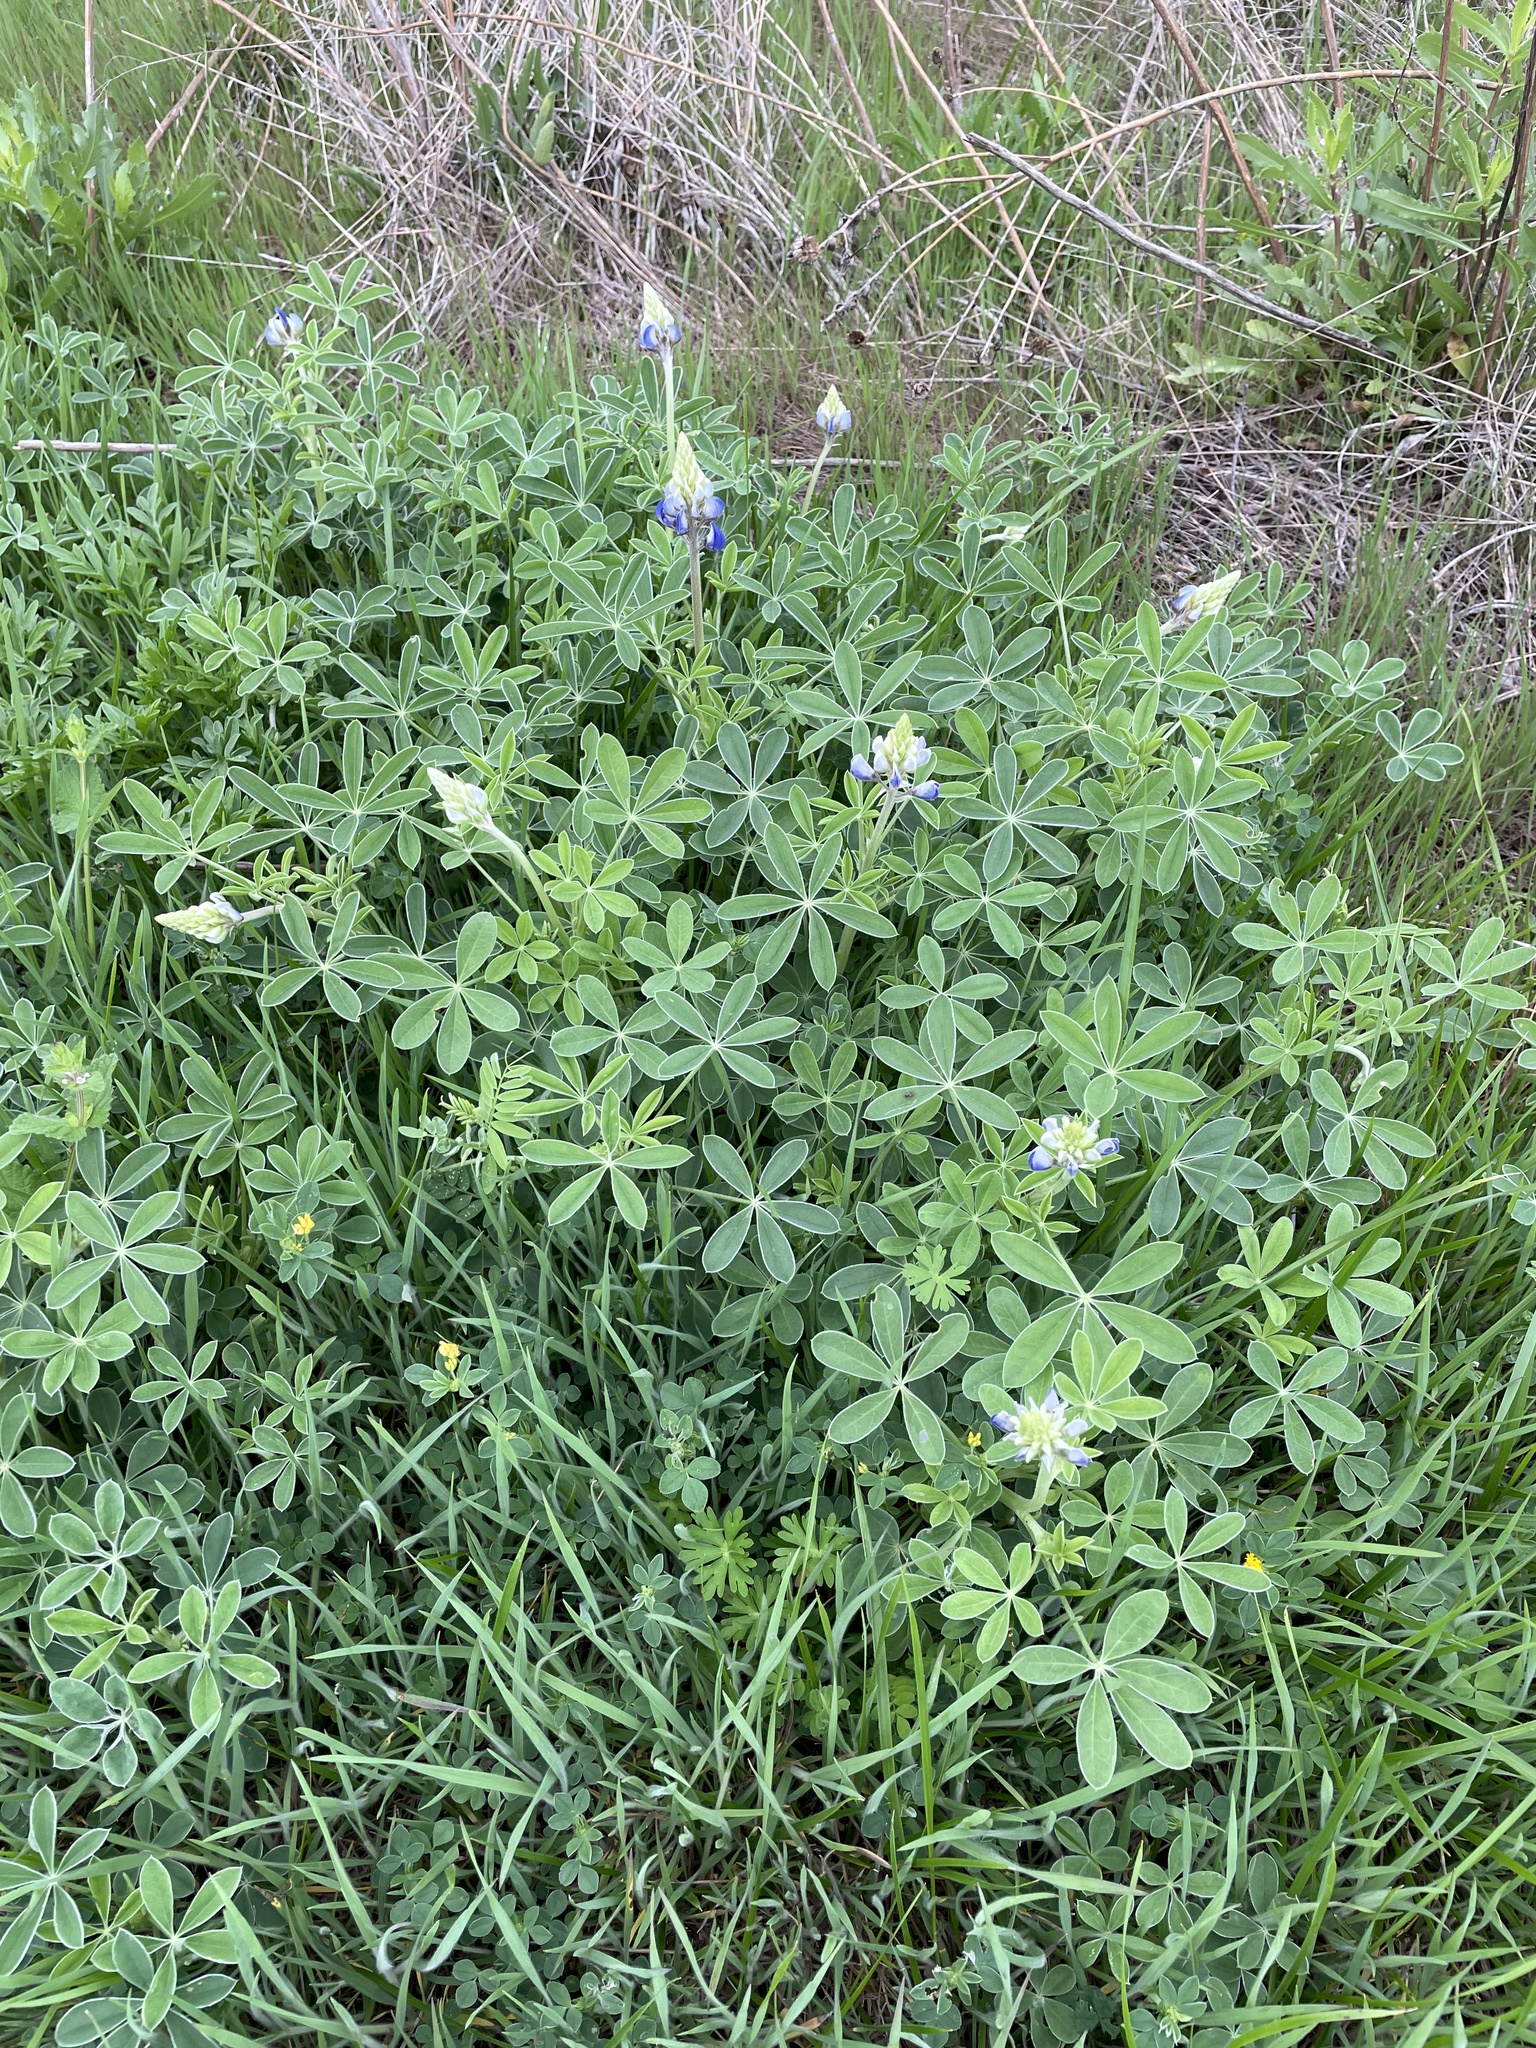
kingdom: Plantae
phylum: Tracheophyta
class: Magnoliopsida
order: Fabales
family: Fabaceae
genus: Lupinus
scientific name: Lupinus texensis
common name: Texas bluebonnet
